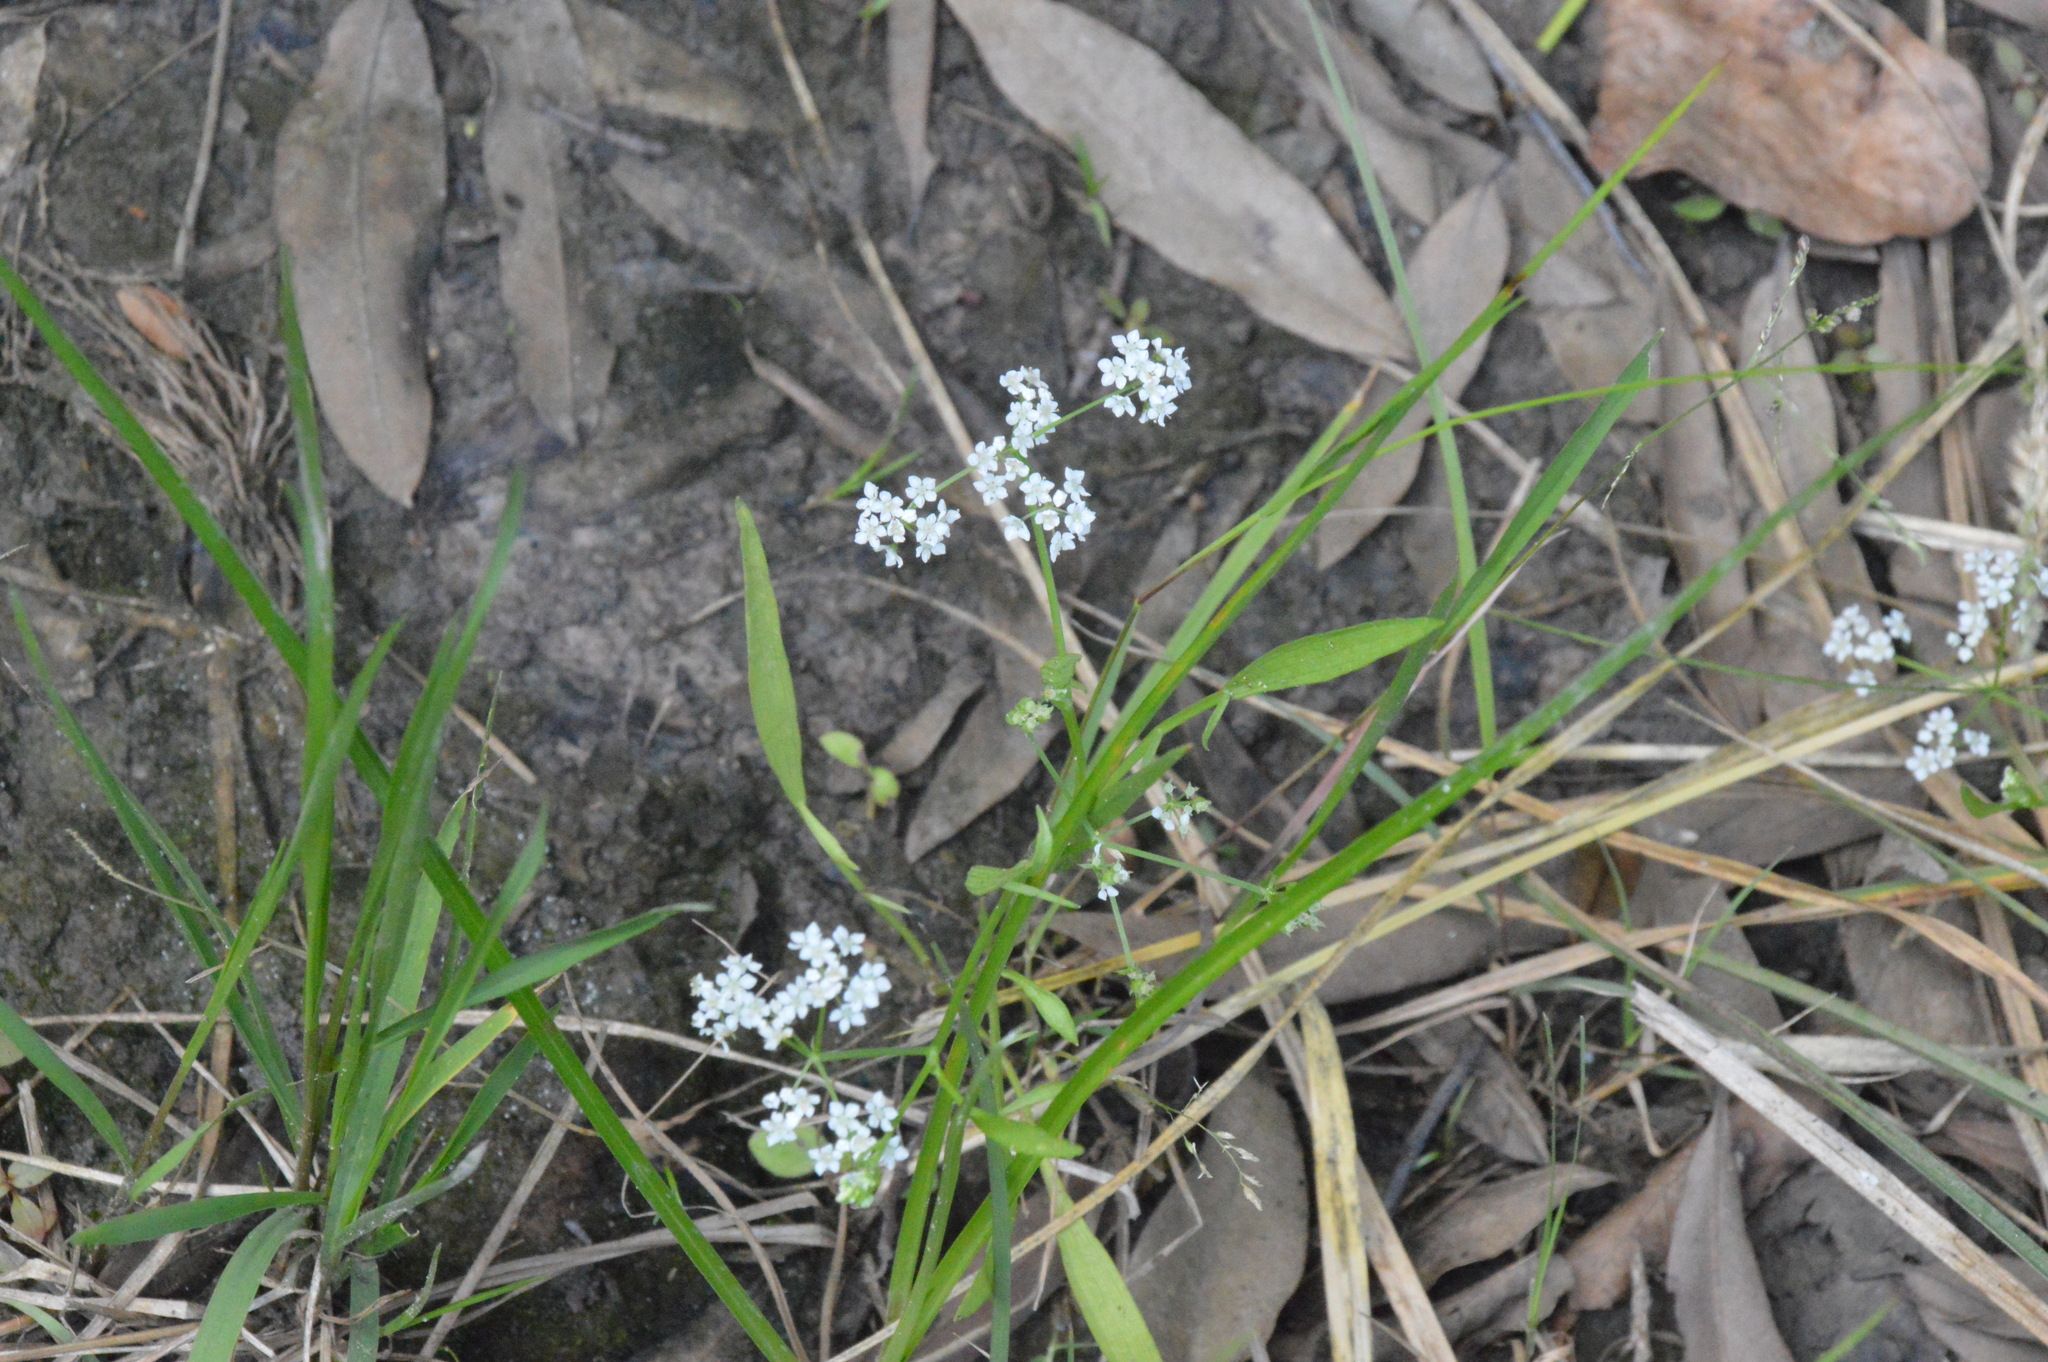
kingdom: Plantae
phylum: Tracheophyta
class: Magnoliopsida
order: Apiales
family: Apiaceae
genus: Limnosciadium
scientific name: Limnosciadium pinnatum
